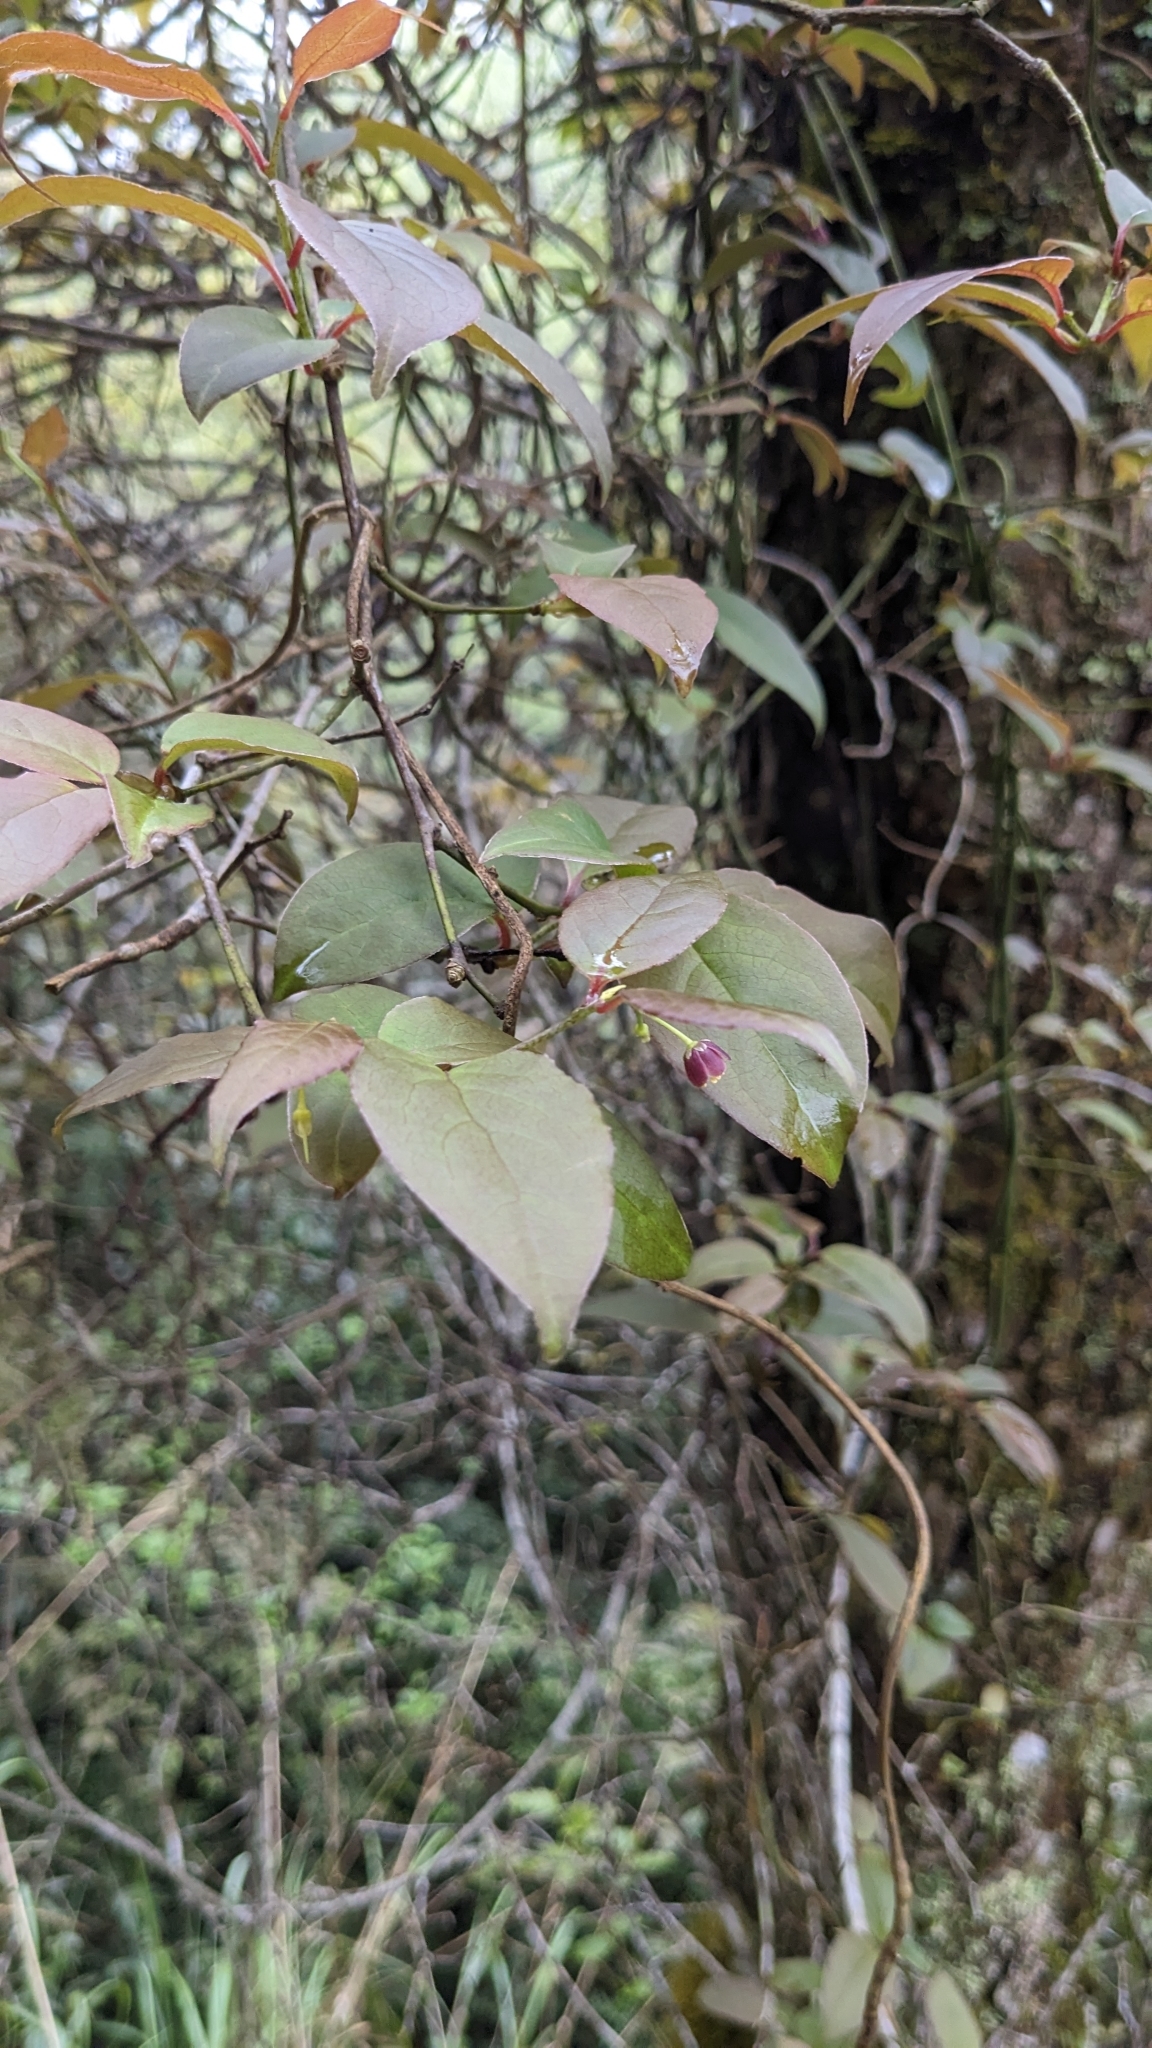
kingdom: Plantae
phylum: Tracheophyta
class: Magnoliopsida
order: Austrobaileyales
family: Schisandraceae
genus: Schisandra
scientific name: Schisandra arisanensis
